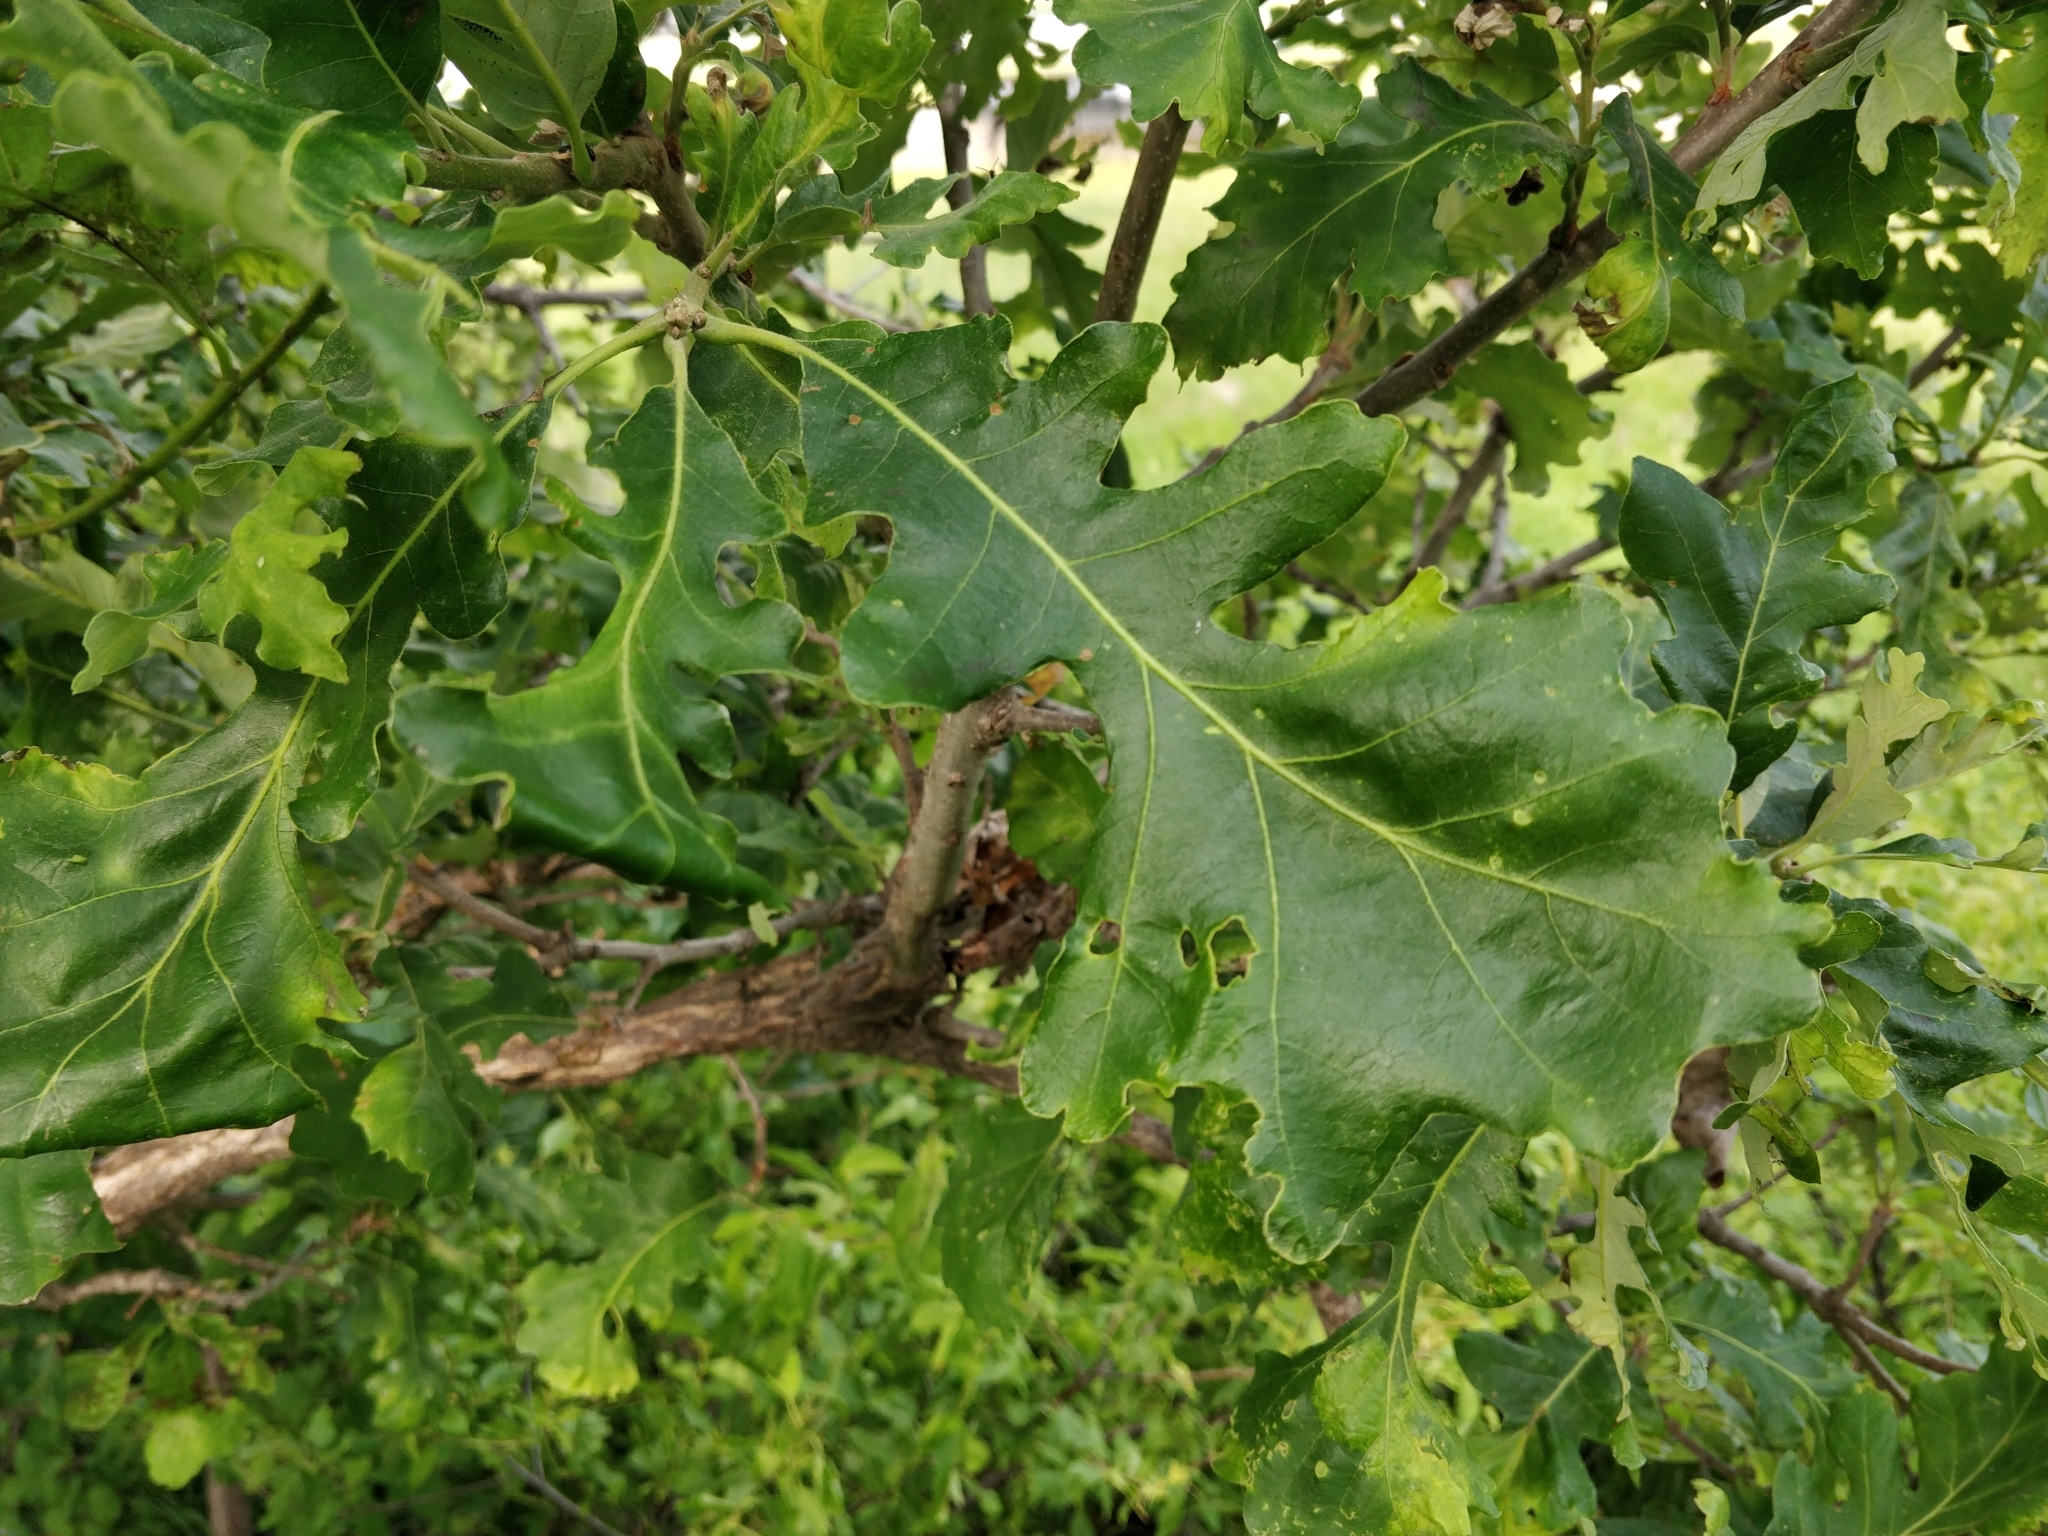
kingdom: Plantae
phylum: Tracheophyta
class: Magnoliopsida
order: Fagales
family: Fagaceae
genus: Quercus
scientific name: Quercus macrocarpa
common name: Bur oak
